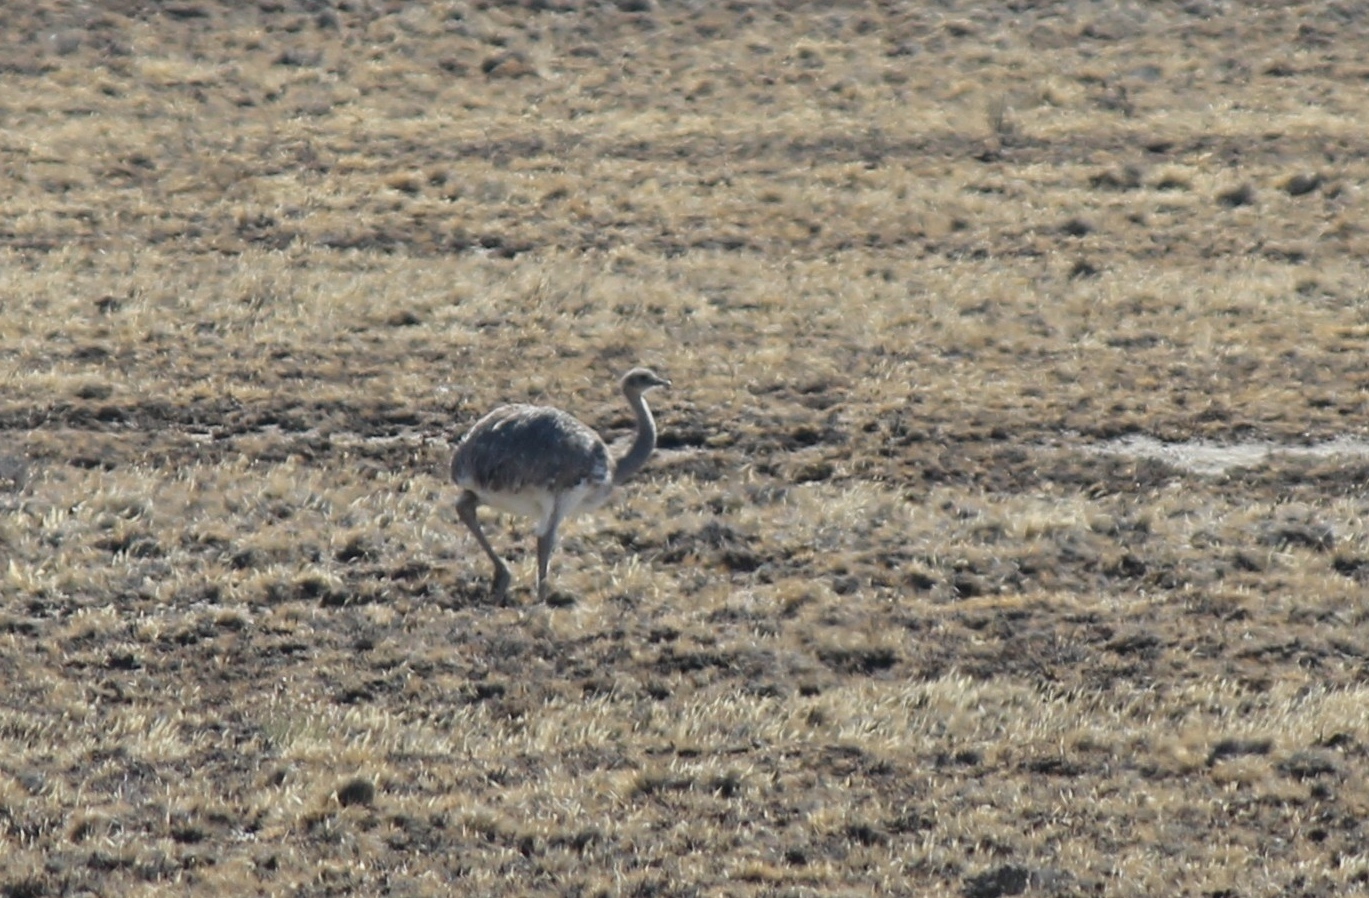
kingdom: Animalia
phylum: Chordata
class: Aves
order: Rheiformes
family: Rheidae
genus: Rhea
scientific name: Rhea pennata
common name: Lesser rhea
